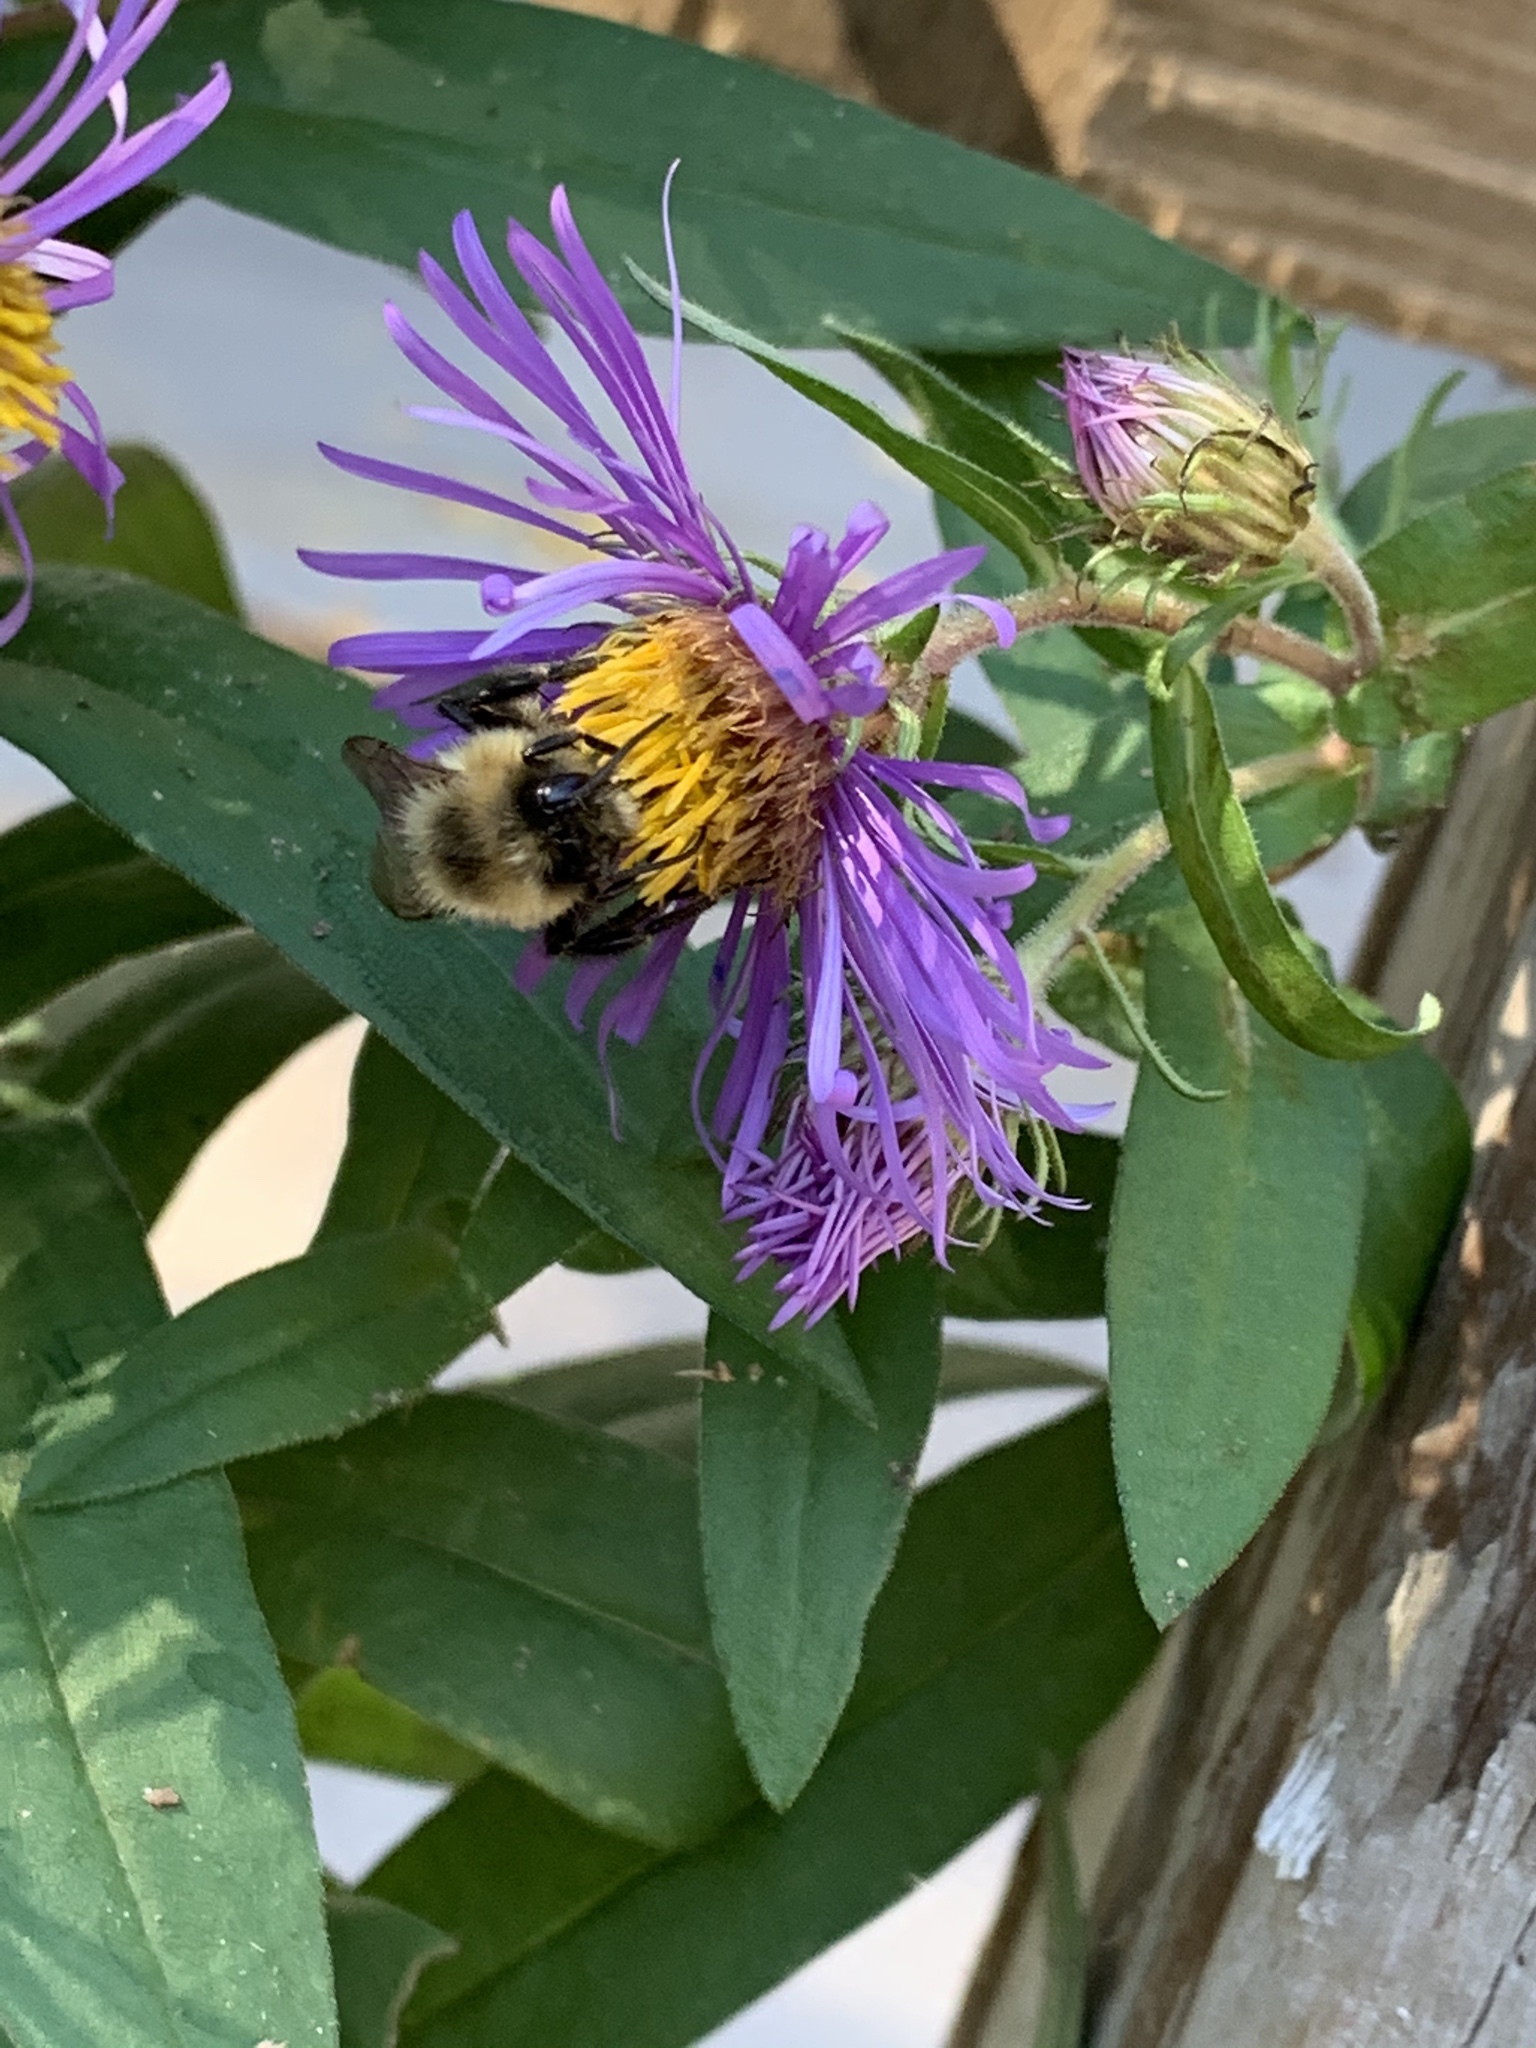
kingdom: Animalia
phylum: Arthropoda
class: Insecta
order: Hymenoptera
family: Apidae
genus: Bombus
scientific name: Bombus impatiens
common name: Common eastern bumble bee
